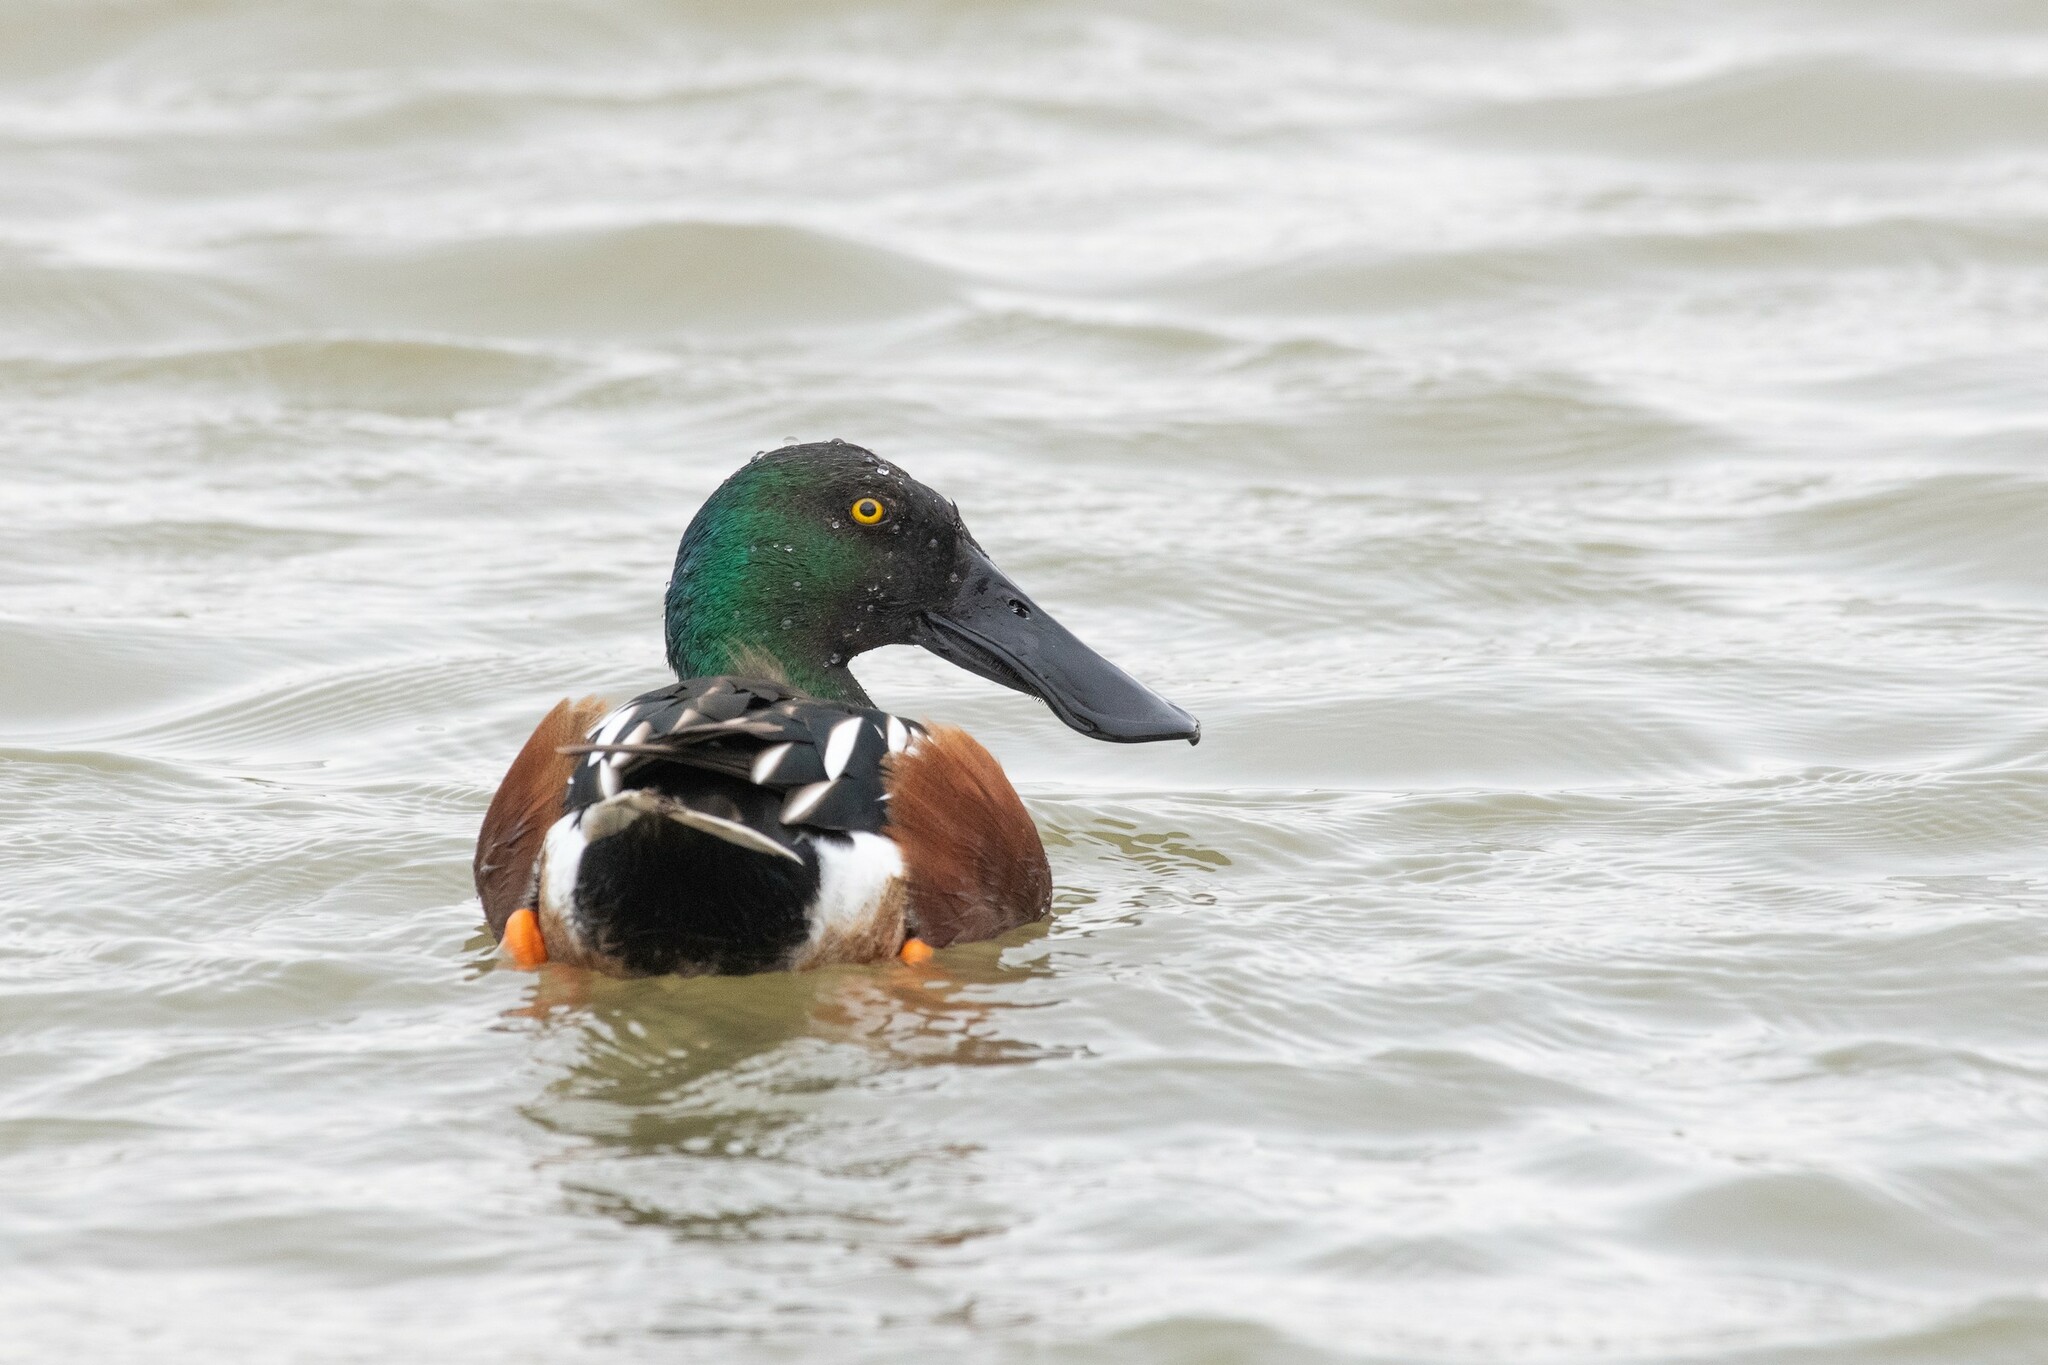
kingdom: Animalia
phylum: Chordata
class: Aves
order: Anseriformes
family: Anatidae
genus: Spatula
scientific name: Spatula clypeata
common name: Northern shoveler
